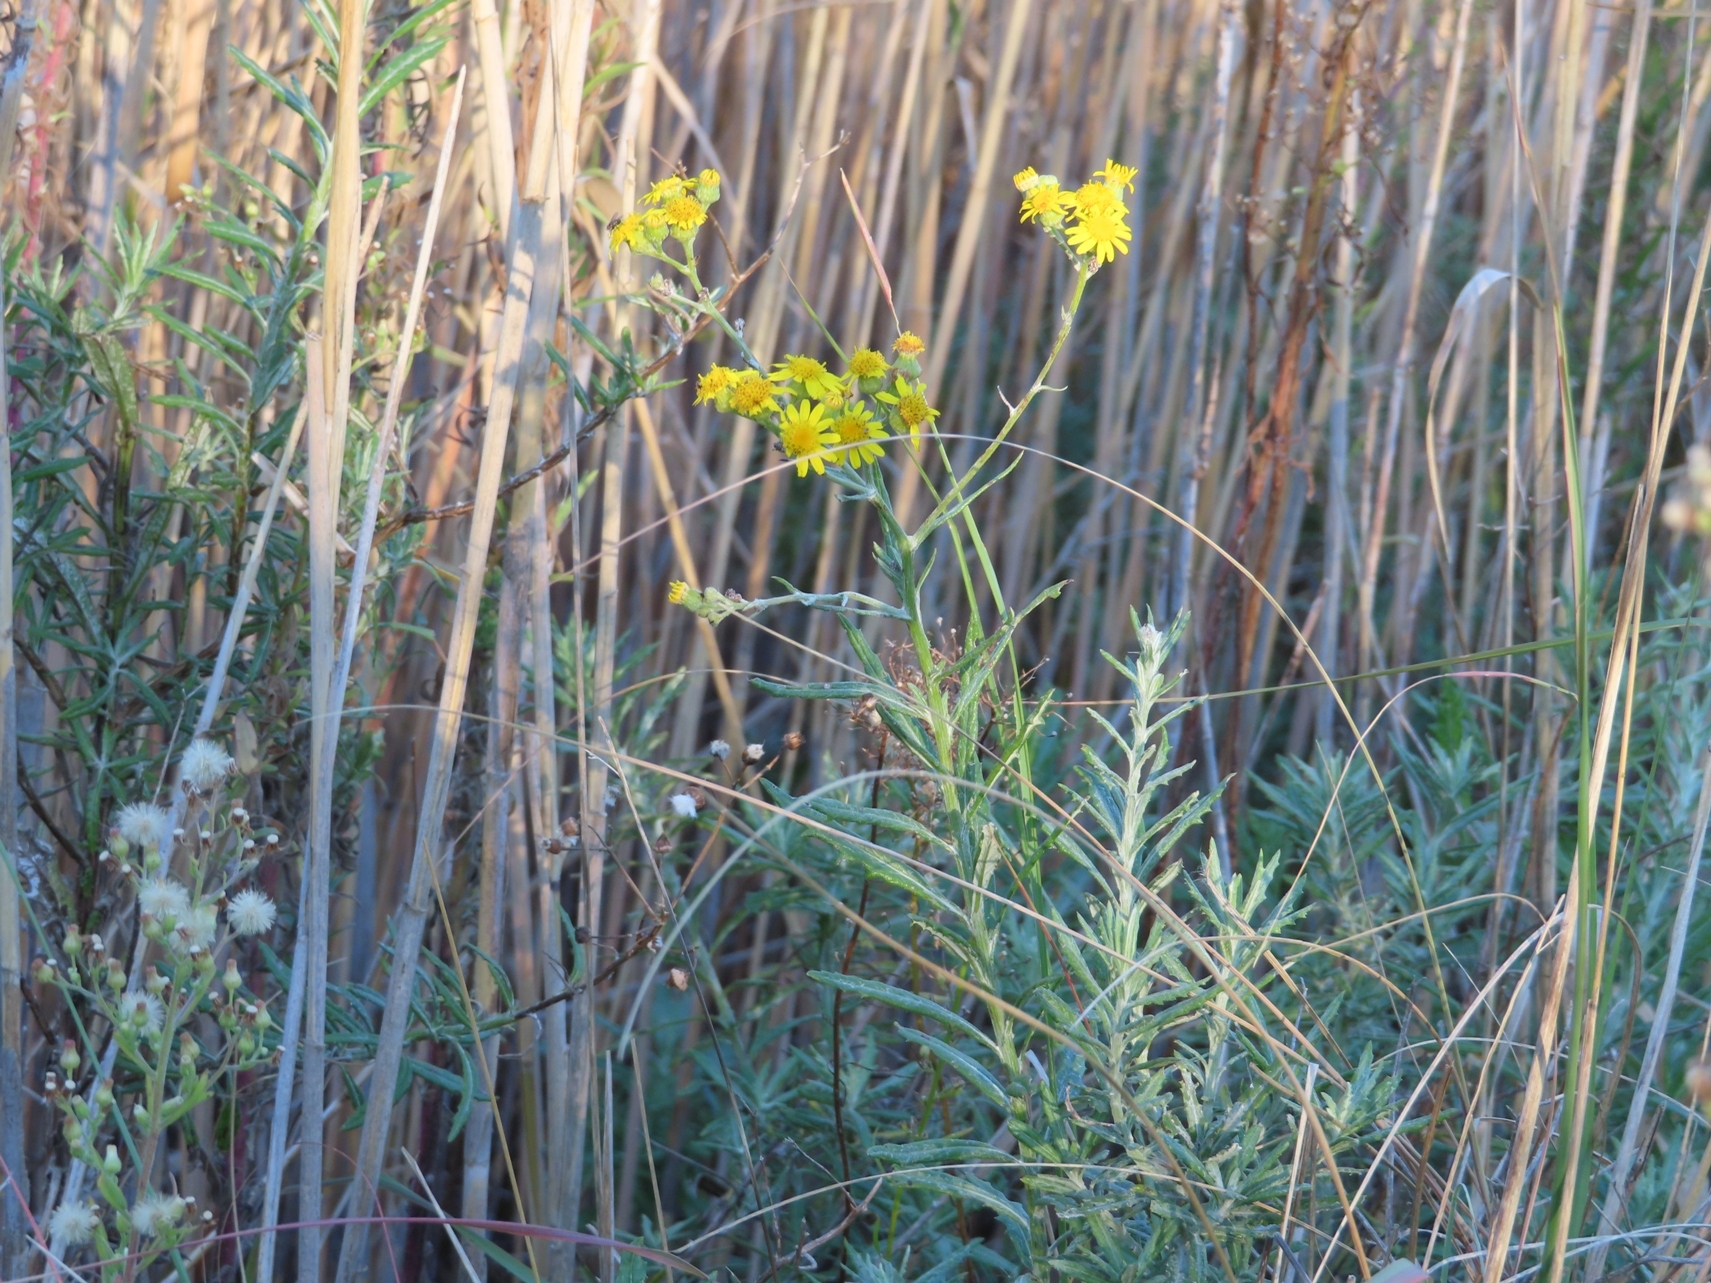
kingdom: Plantae
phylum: Tracheophyta
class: Magnoliopsida
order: Asterales
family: Asteraceae
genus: Senecio
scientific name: Senecio pterophorus
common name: Shoddy ragwort
